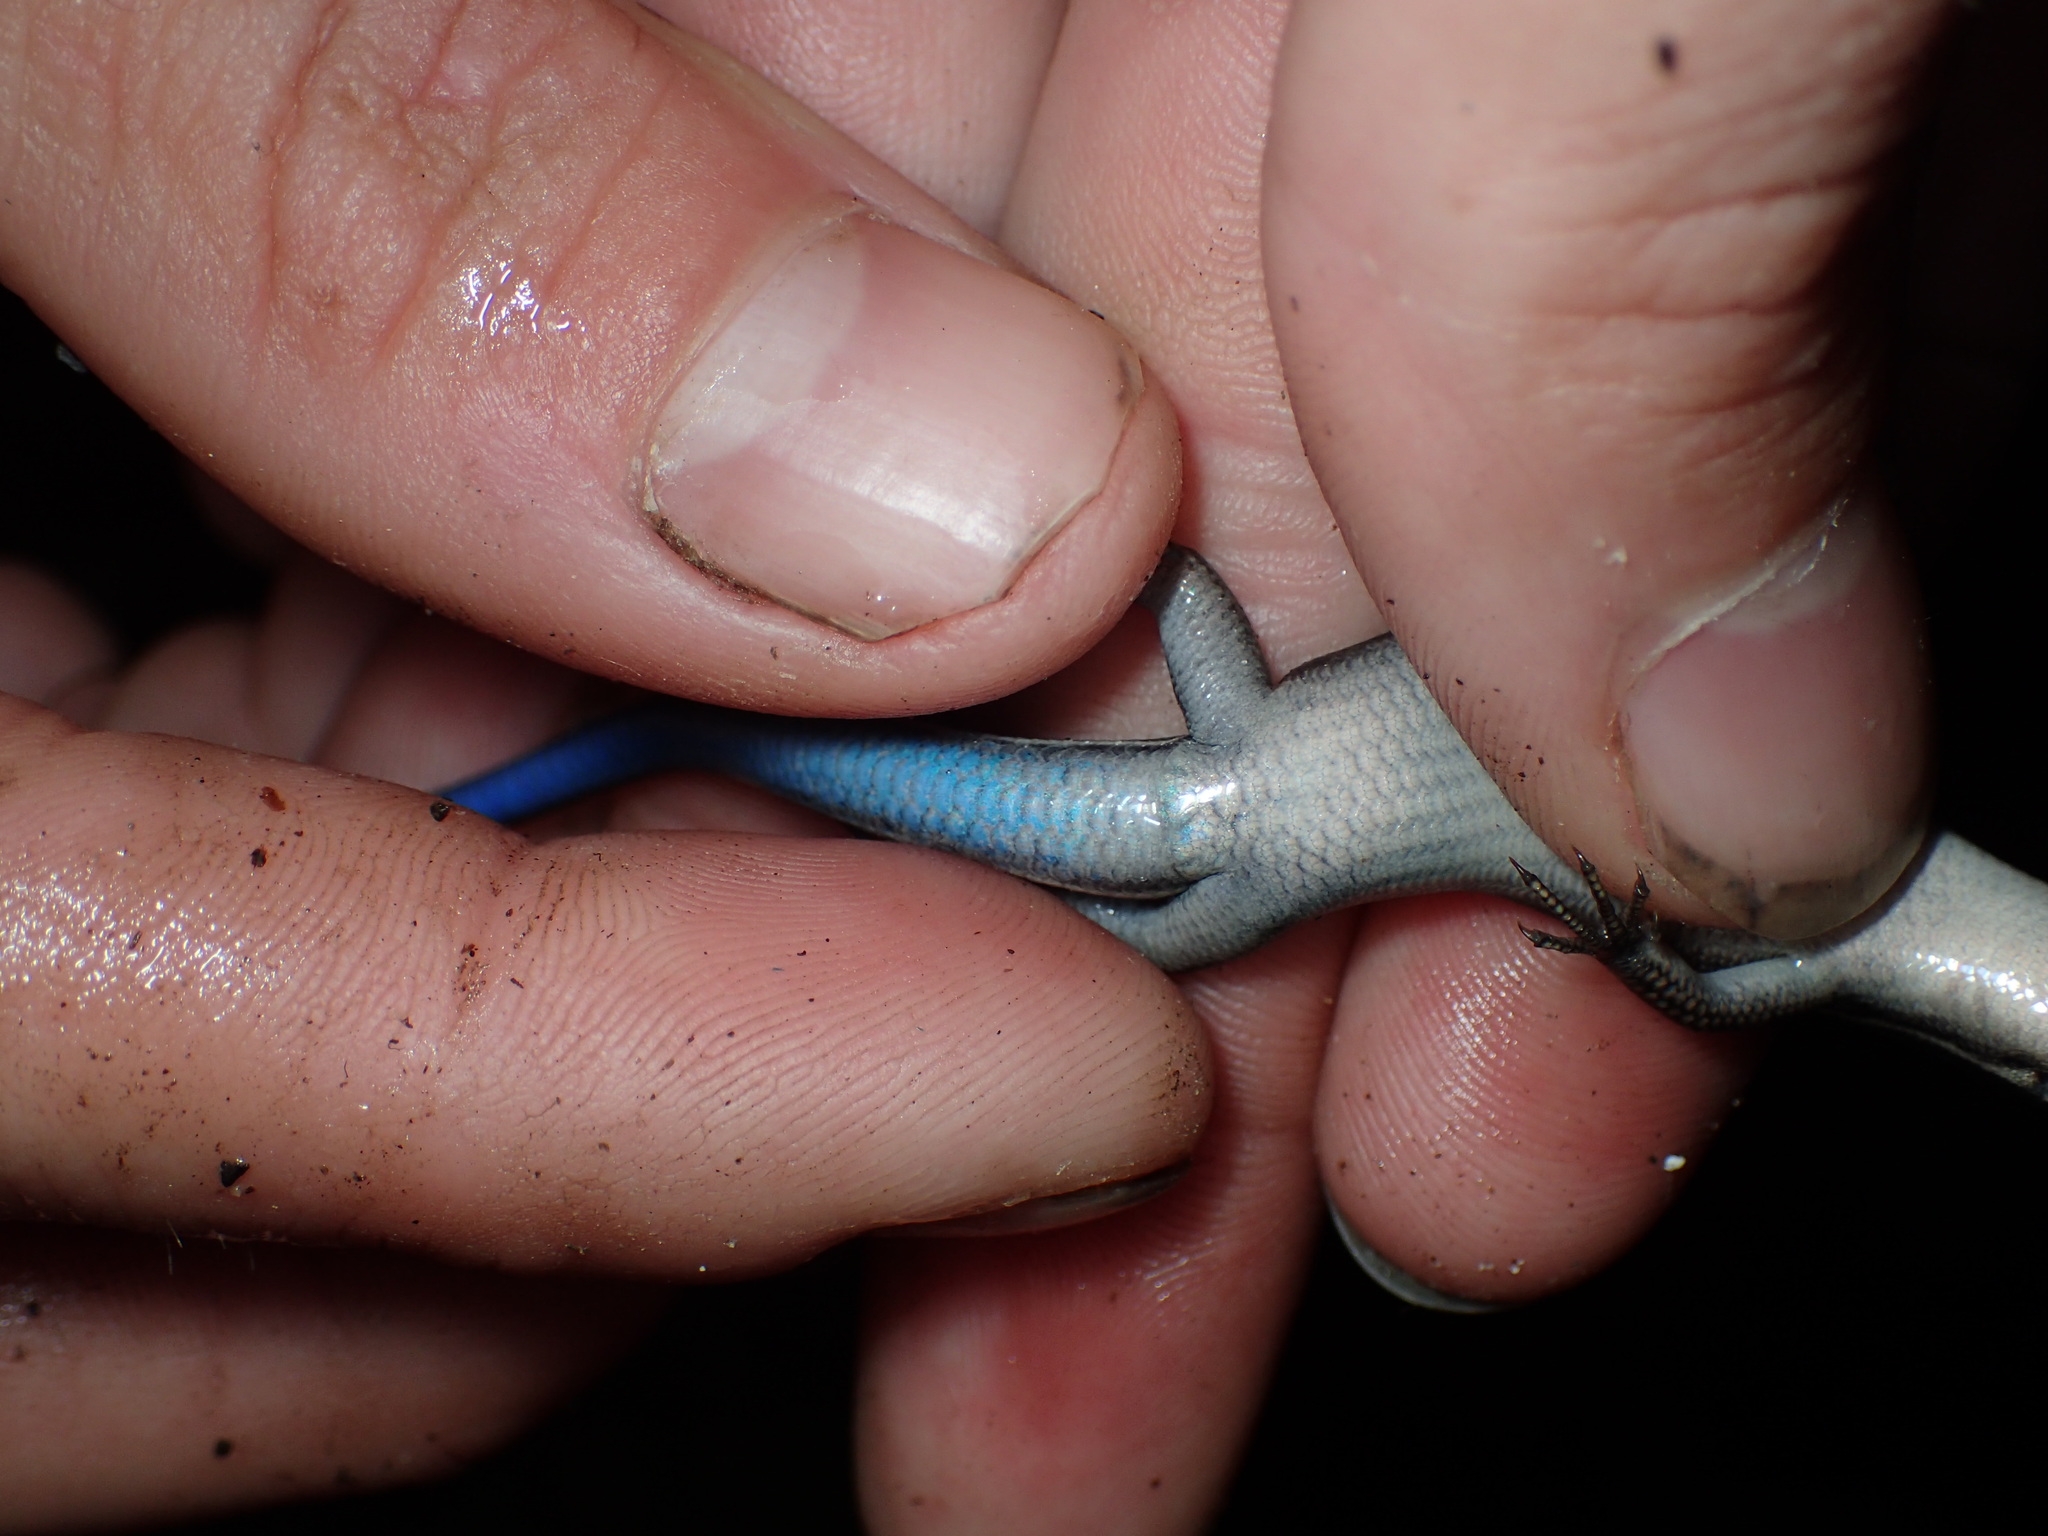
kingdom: Animalia
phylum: Chordata
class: Squamata
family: Scincidae
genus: Plestiodon
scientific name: Plestiodon fasciatus
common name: Five-lined skink
